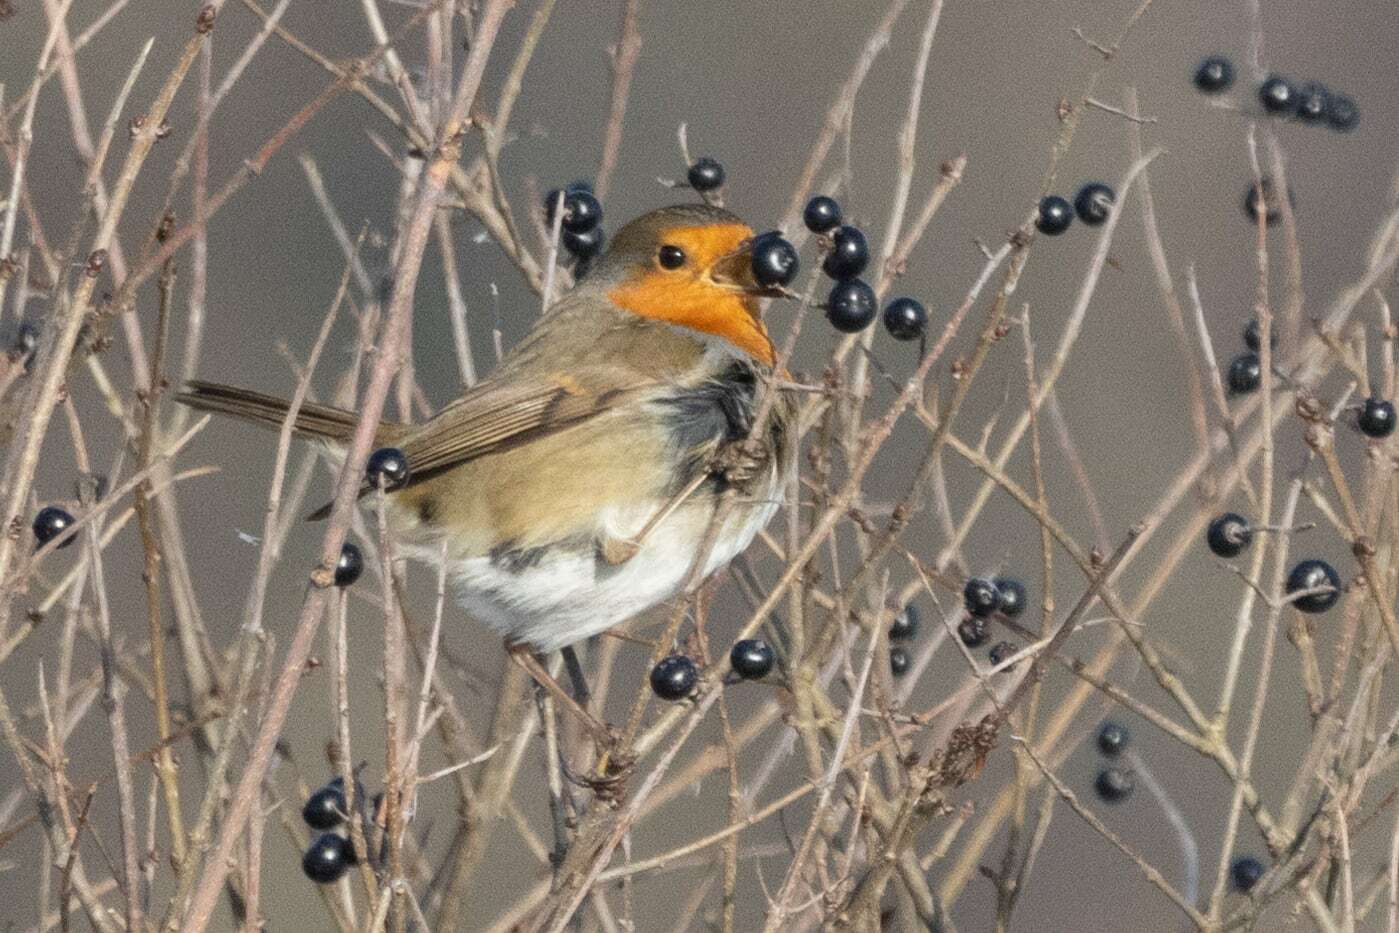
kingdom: Animalia
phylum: Chordata
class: Aves
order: Passeriformes
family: Muscicapidae
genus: Erithacus
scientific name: Erithacus rubecula
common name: European robin
